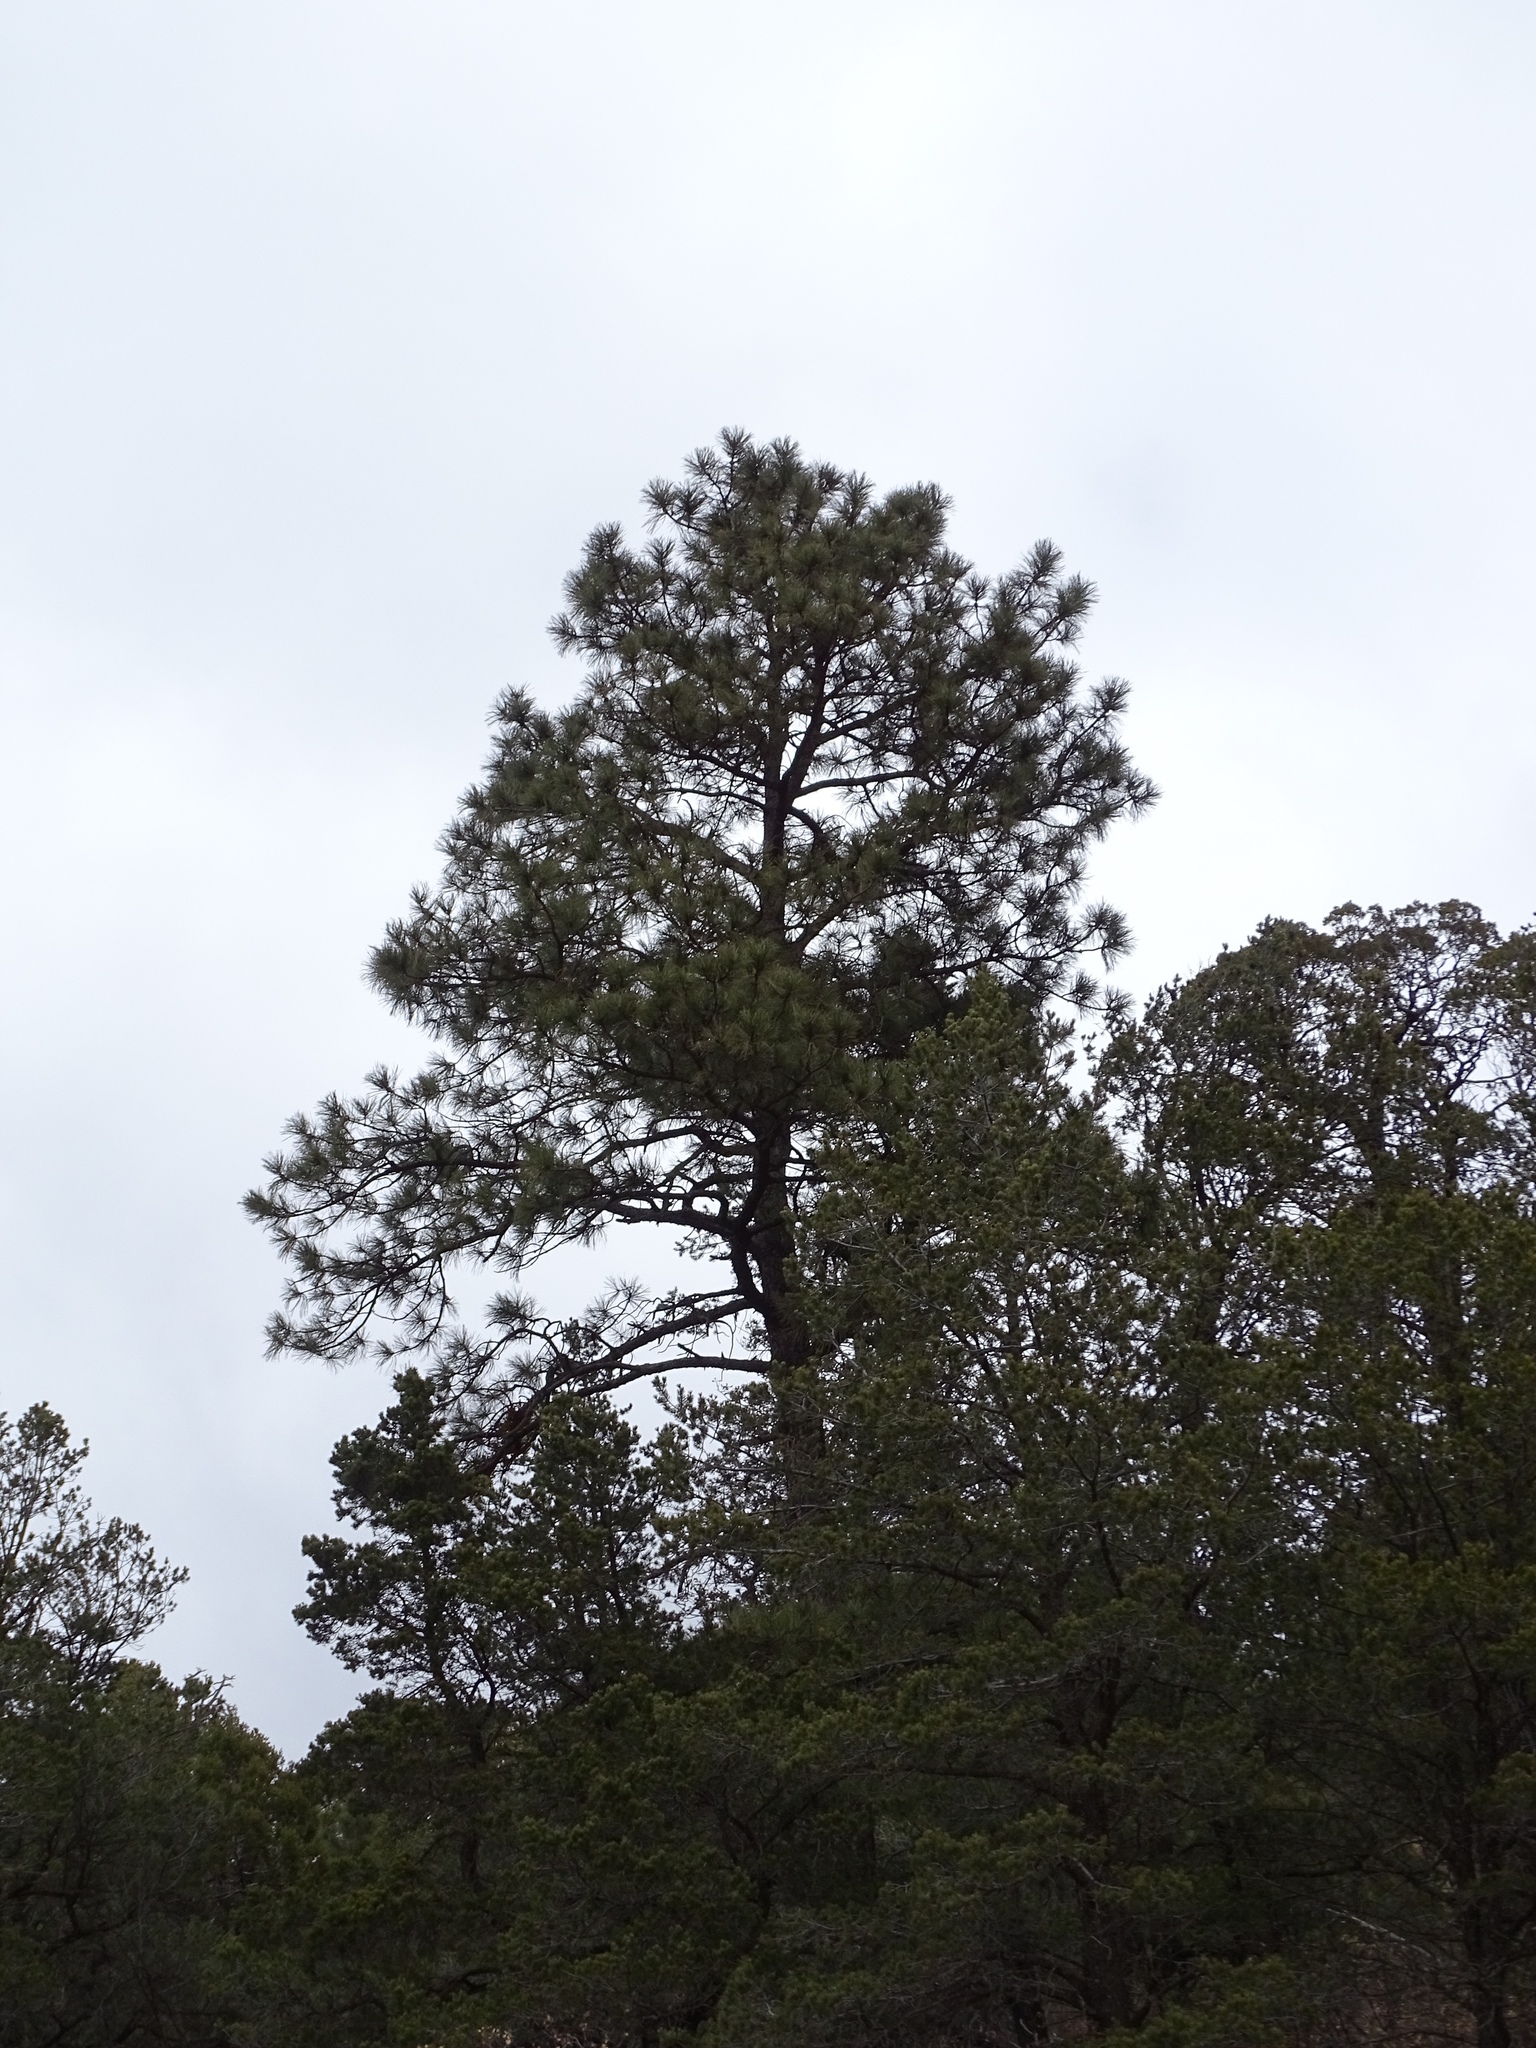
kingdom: Plantae
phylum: Tracheophyta
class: Pinopsida
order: Pinales
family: Pinaceae
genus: Pinus
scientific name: Pinus ponderosa
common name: Western yellow-pine
